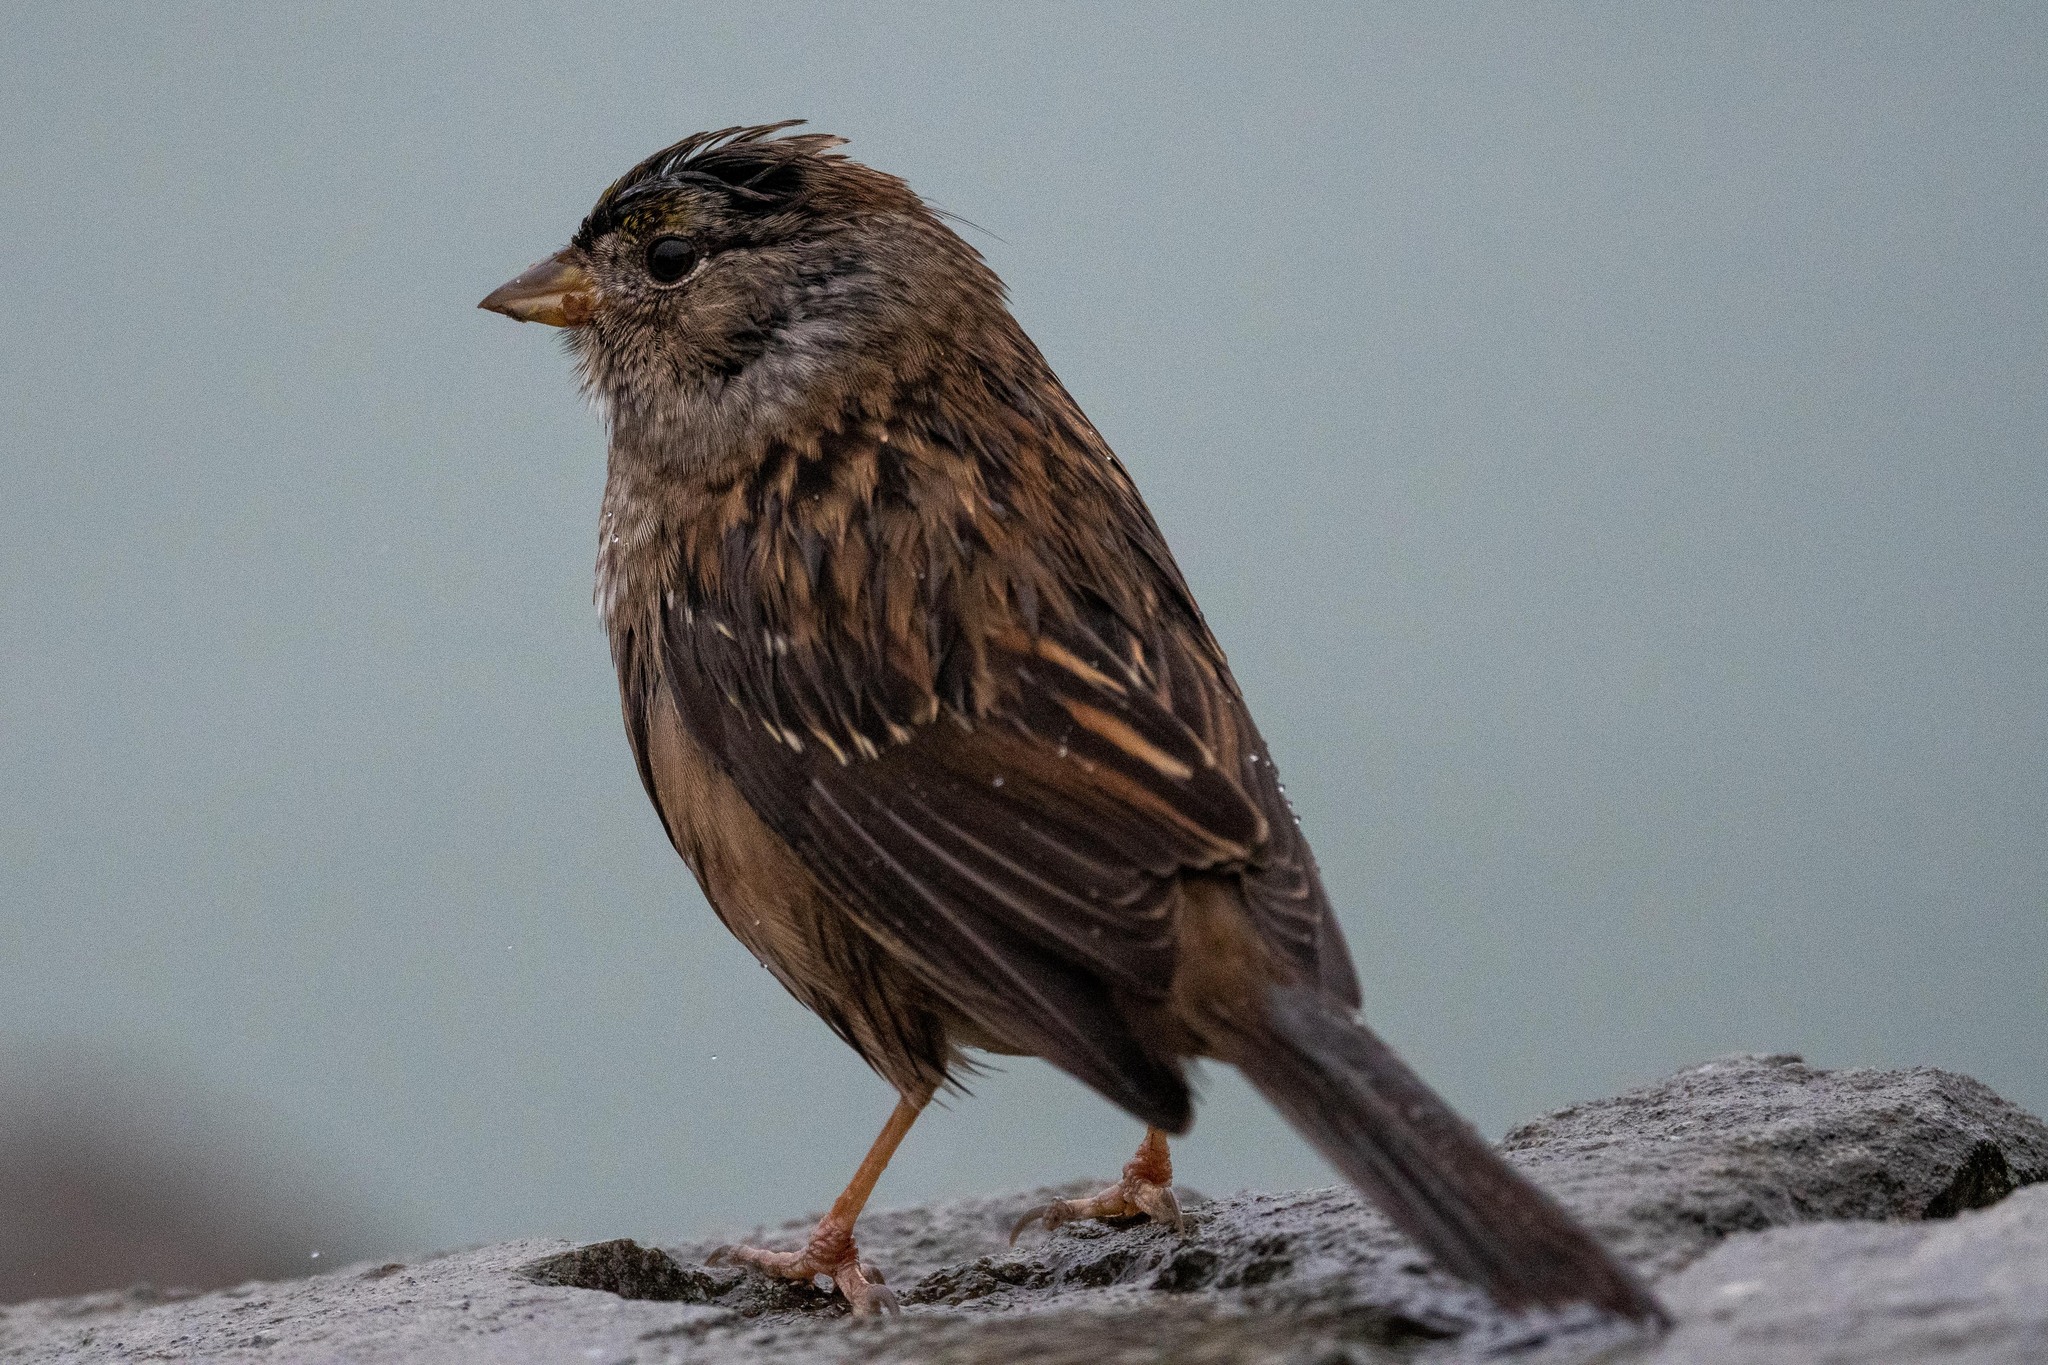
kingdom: Animalia
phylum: Chordata
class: Aves
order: Passeriformes
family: Passerellidae
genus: Zonotrichia
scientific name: Zonotrichia atricapilla
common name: Golden-crowned sparrow
